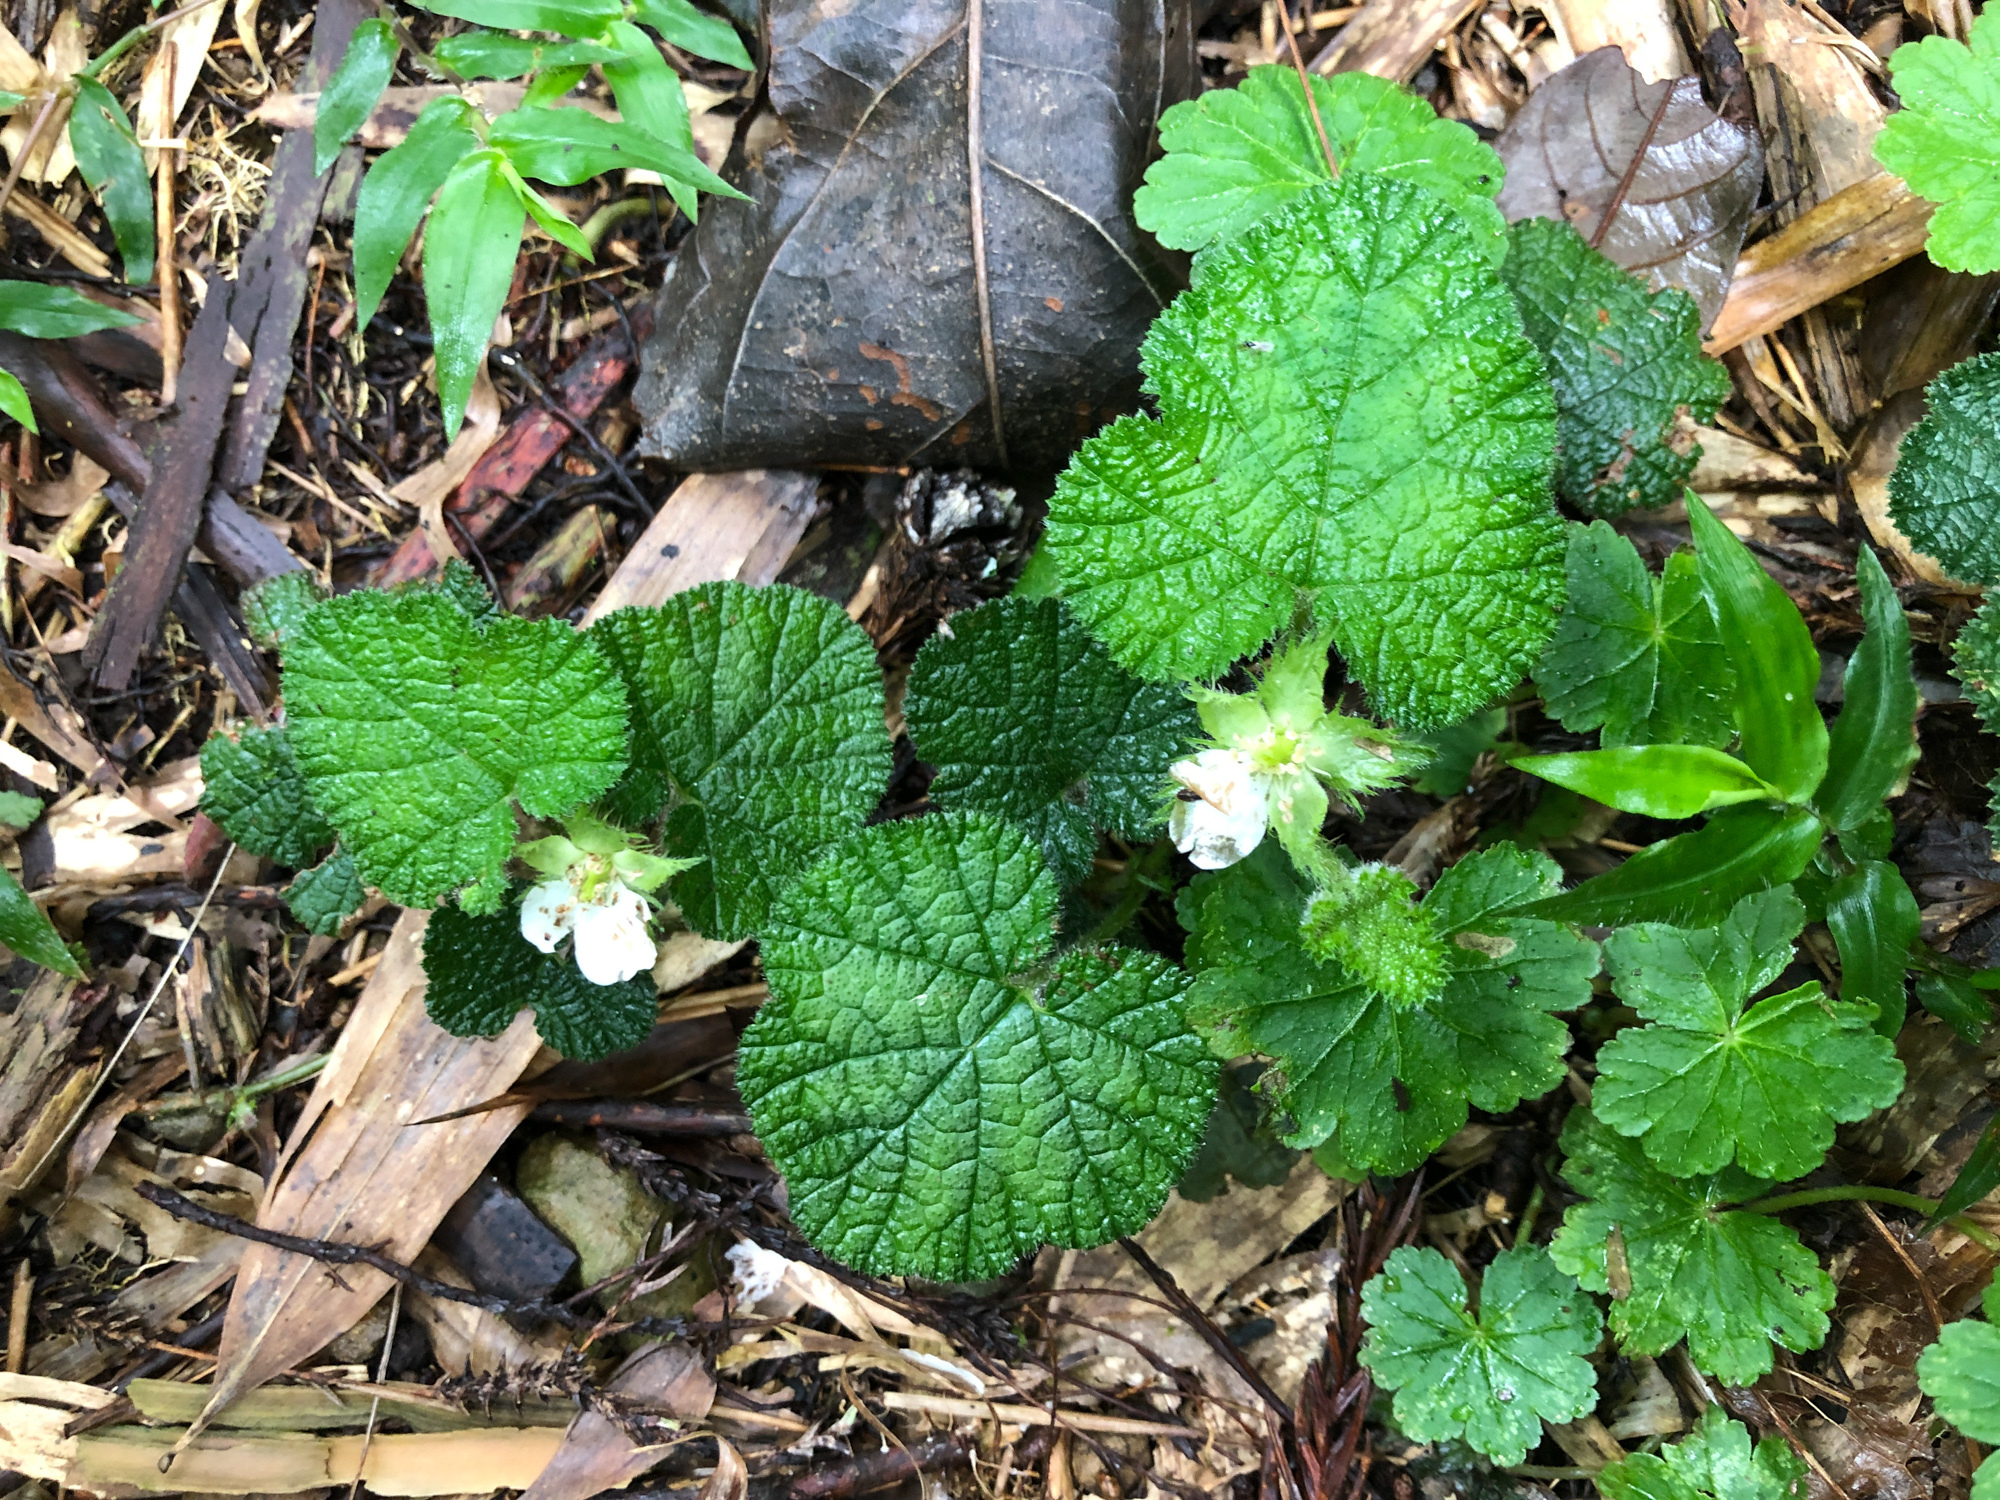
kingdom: Plantae
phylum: Tracheophyta
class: Magnoliopsida
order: Rosales
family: Rosaceae
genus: Rubus
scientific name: Rubus pectinellus
